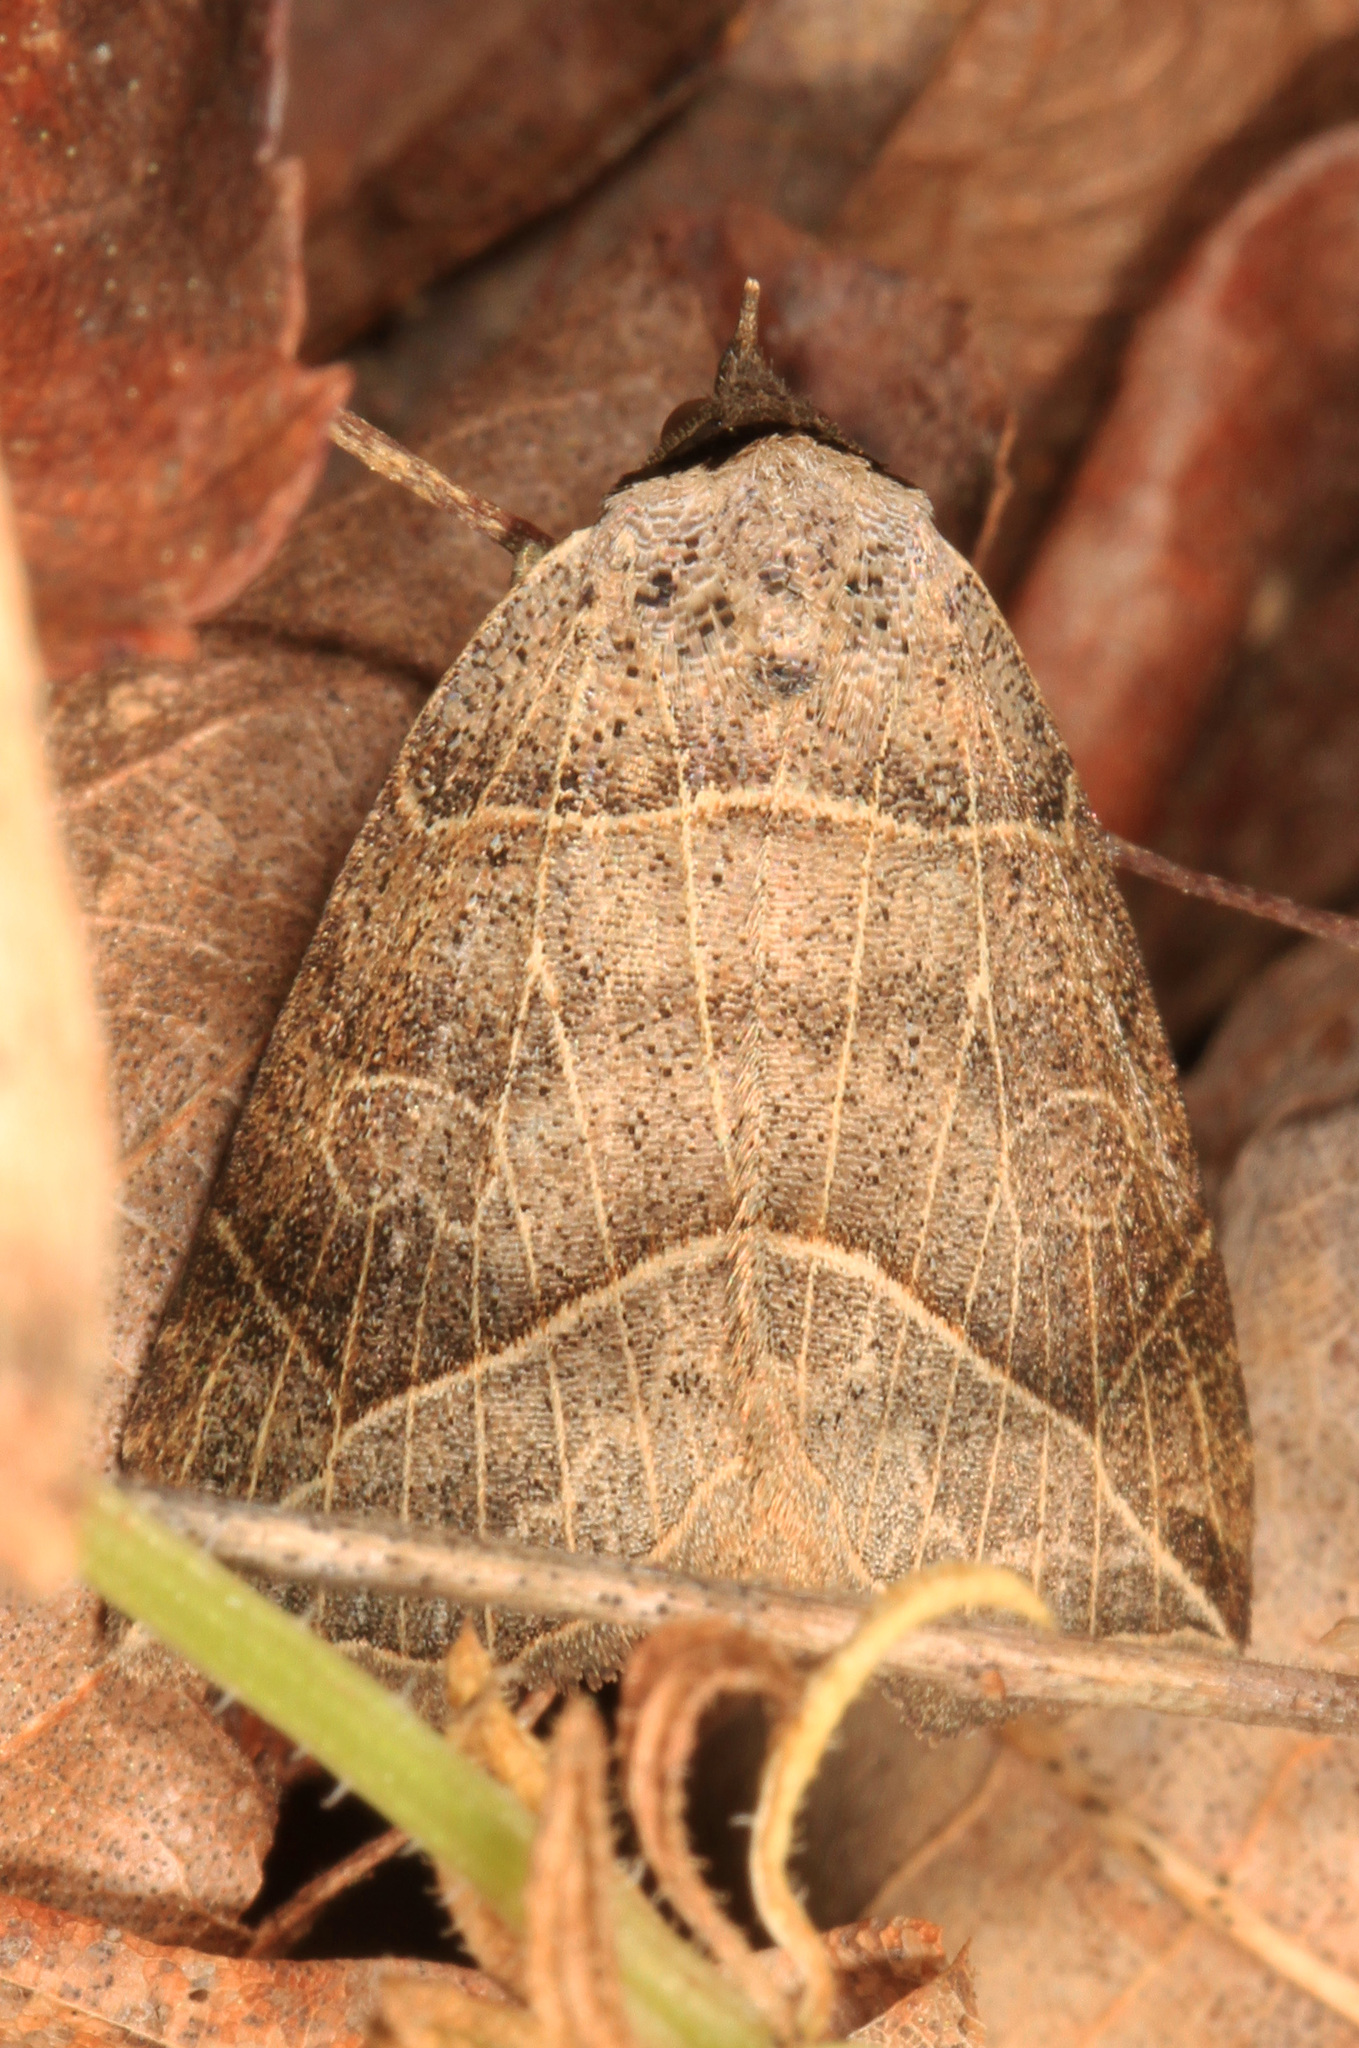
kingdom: Animalia
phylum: Arthropoda
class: Insecta
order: Lepidoptera
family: Erebidae
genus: Isogona
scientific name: Isogona tenuis
